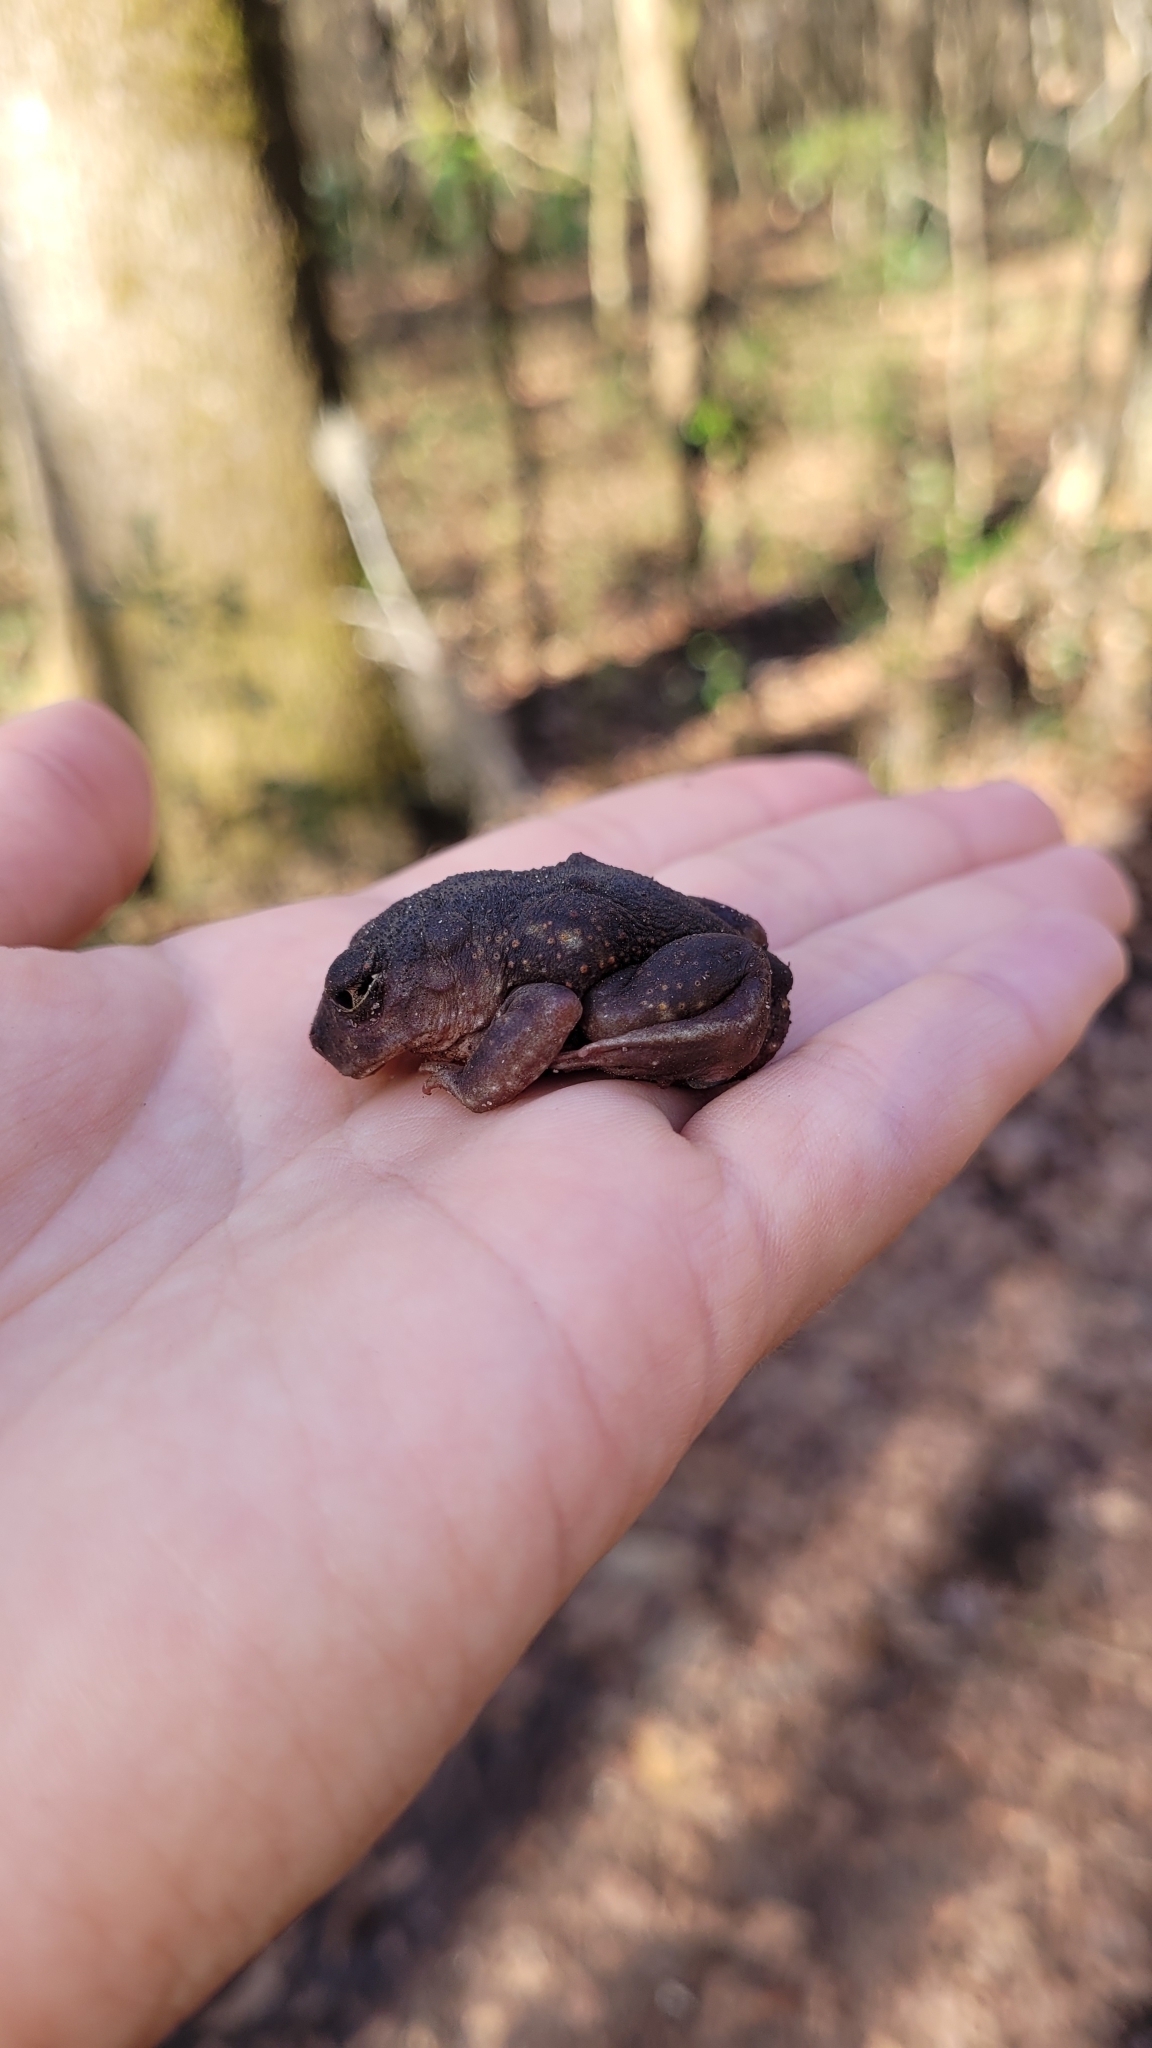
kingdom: Animalia
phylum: Chordata
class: Amphibia
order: Anura
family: Scaphiopodidae
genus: Scaphiopus
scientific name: Scaphiopus holbrookii
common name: Eastern spadefoot toad
